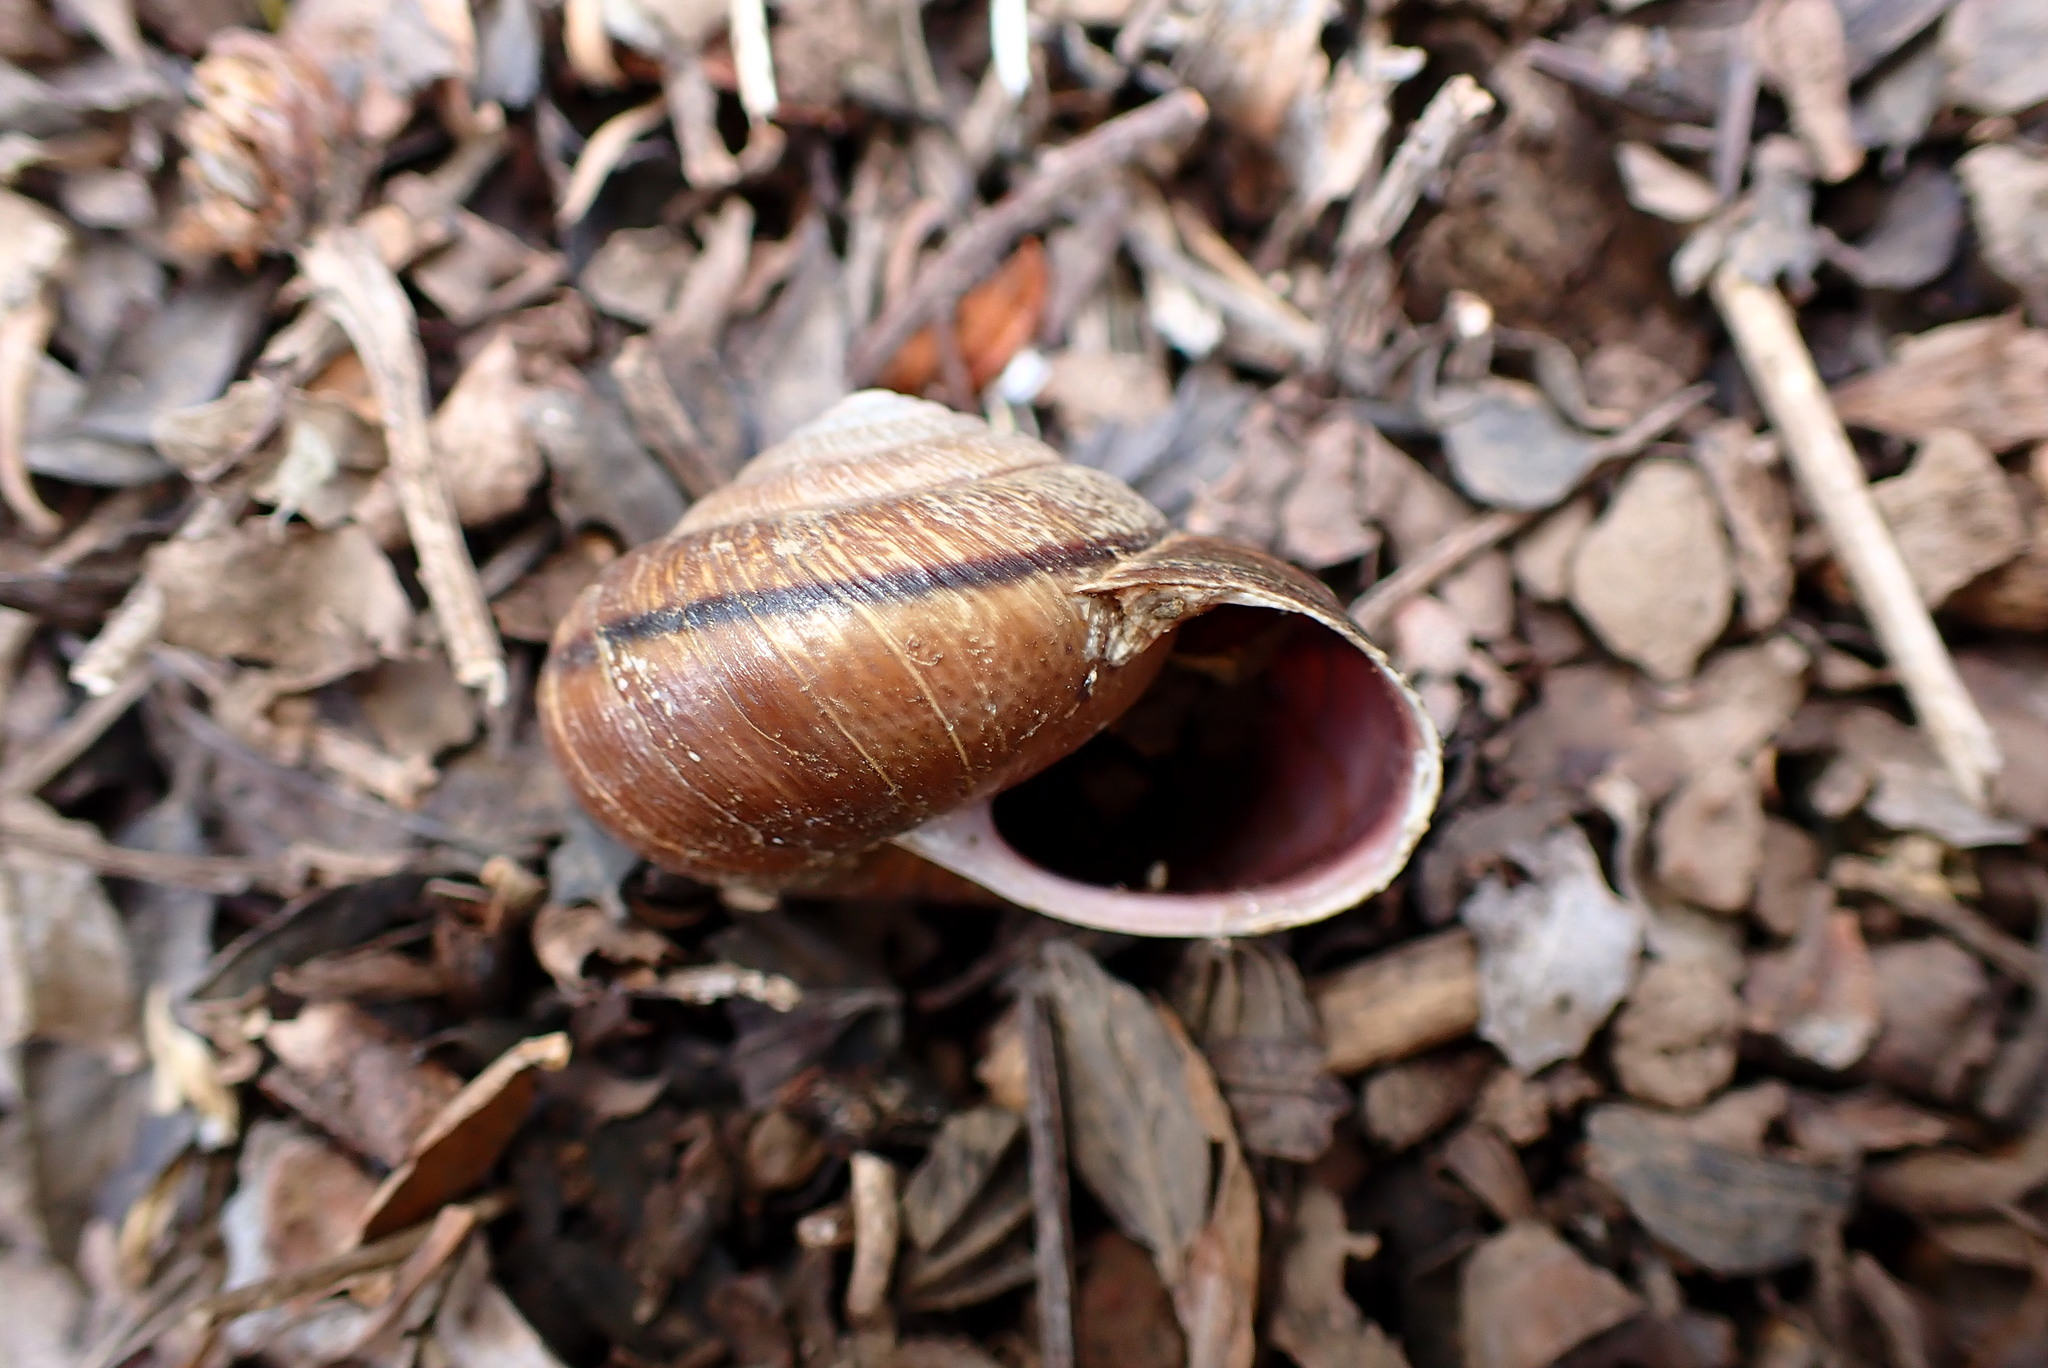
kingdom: Animalia
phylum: Mollusca
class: Gastropoda
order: Stylommatophora
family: Xanthonychidae
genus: Helminthoglypta
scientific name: Helminthoglypta arrosa
